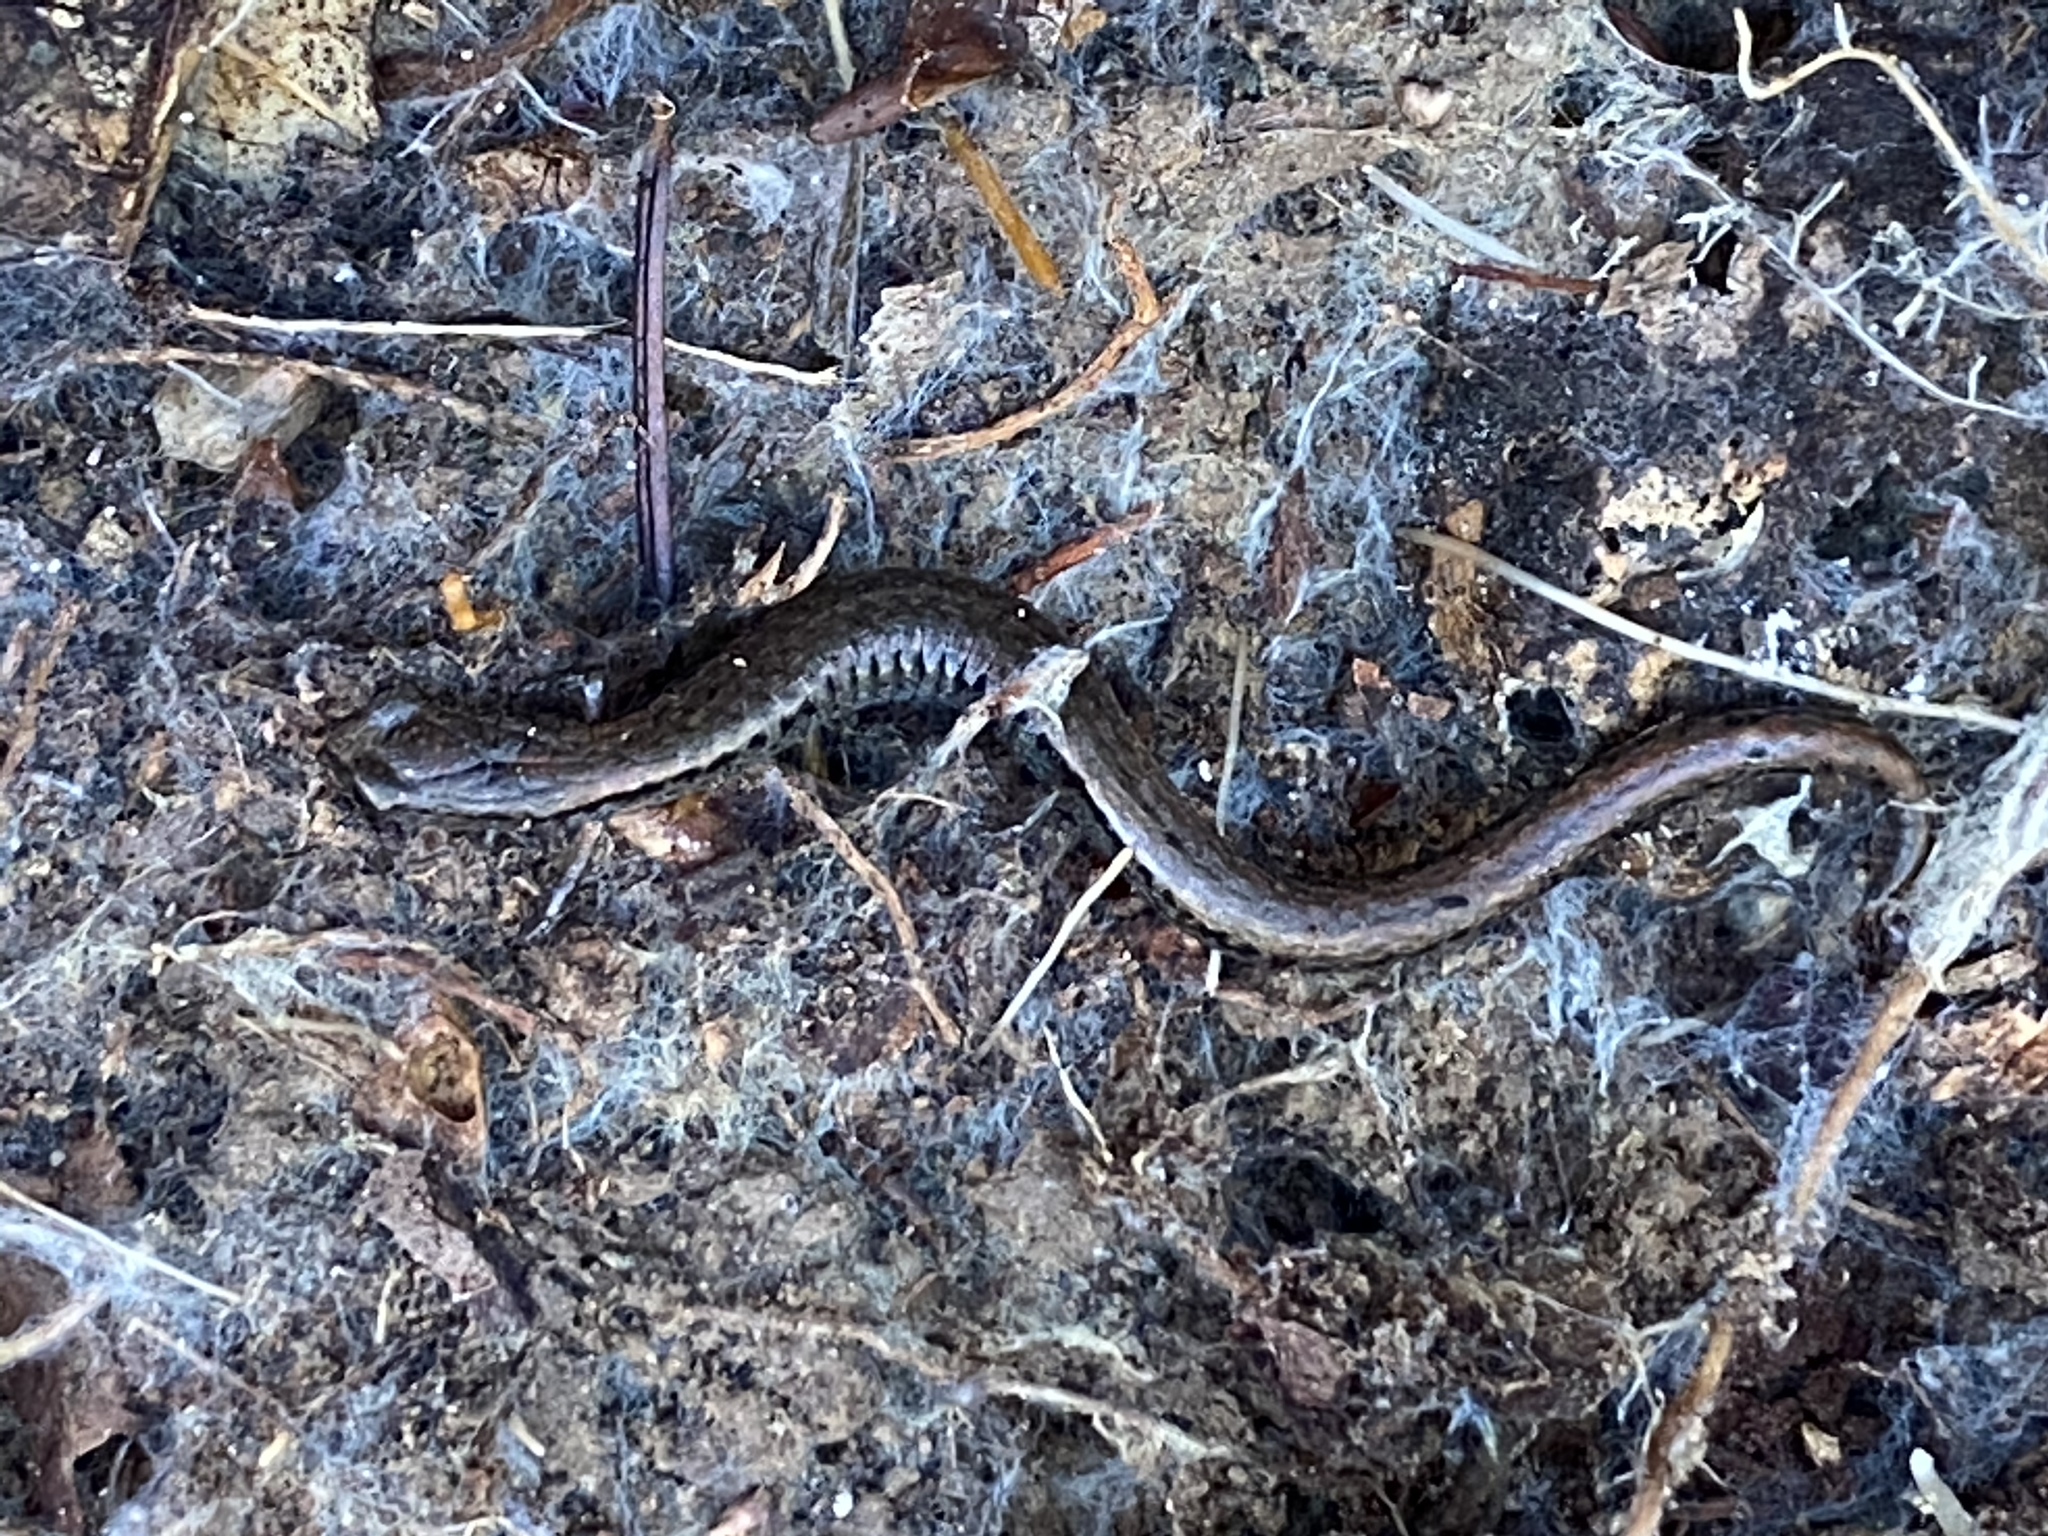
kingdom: Animalia
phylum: Chordata
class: Amphibia
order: Caudata
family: Plethodontidae
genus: Batrachoseps
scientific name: Batrachoseps attenuatus
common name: California slender salamander
